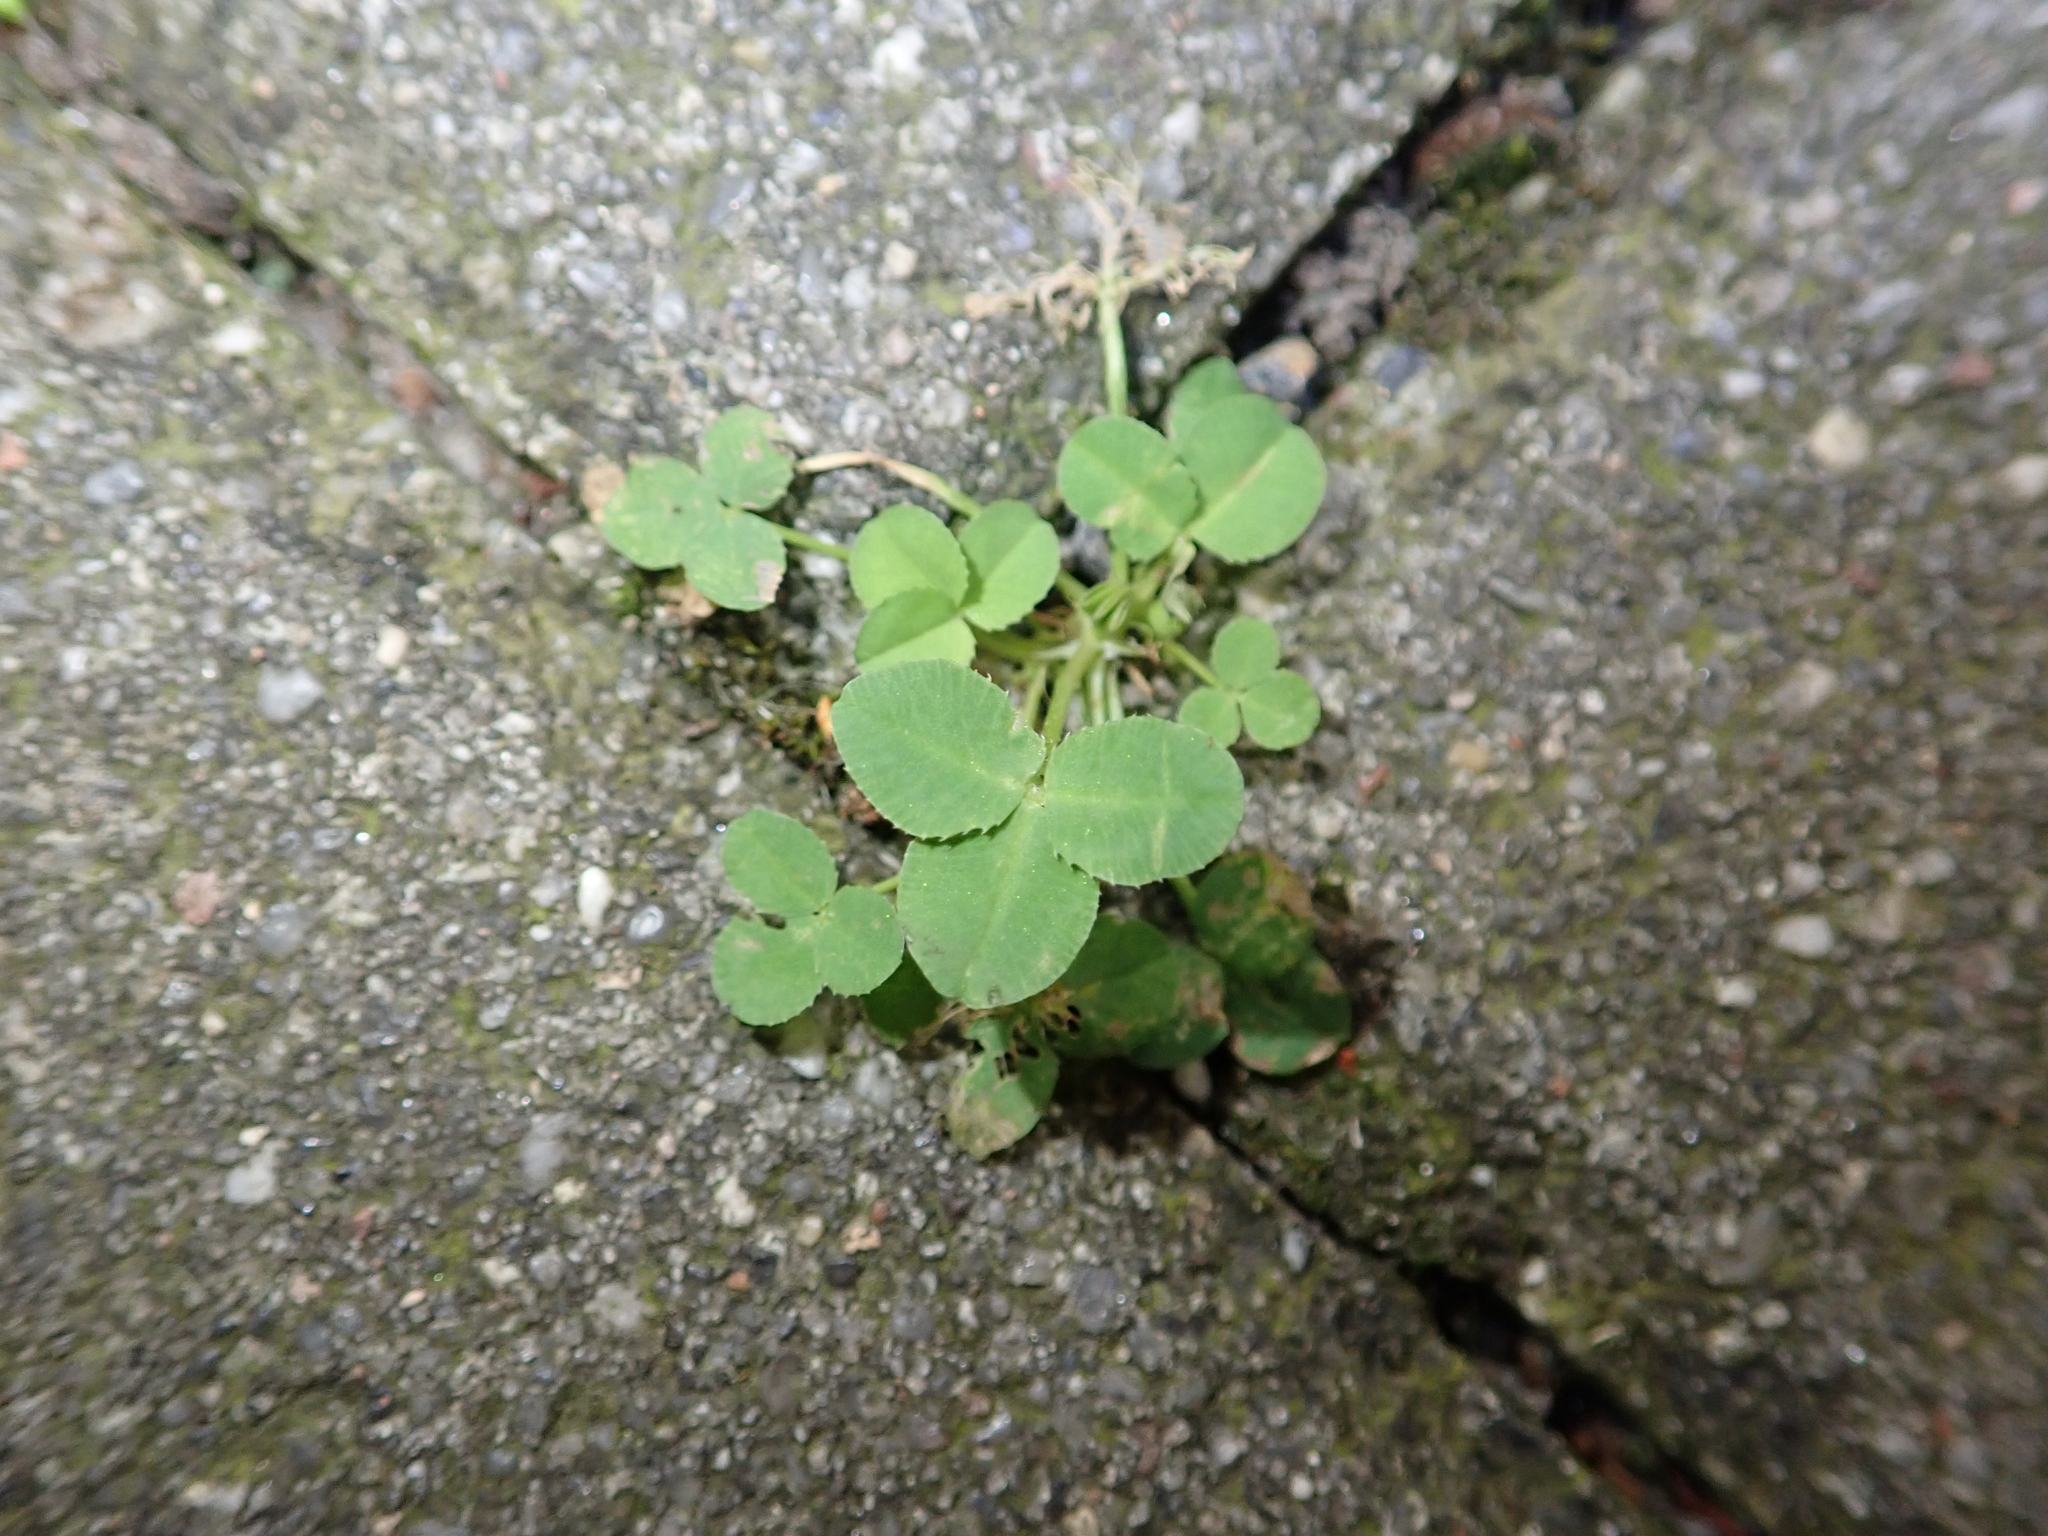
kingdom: Plantae
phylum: Tracheophyta
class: Magnoliopsida
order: Fabales
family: Fabaceae
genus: Trifolium
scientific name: Trifolium repens
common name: White clover
